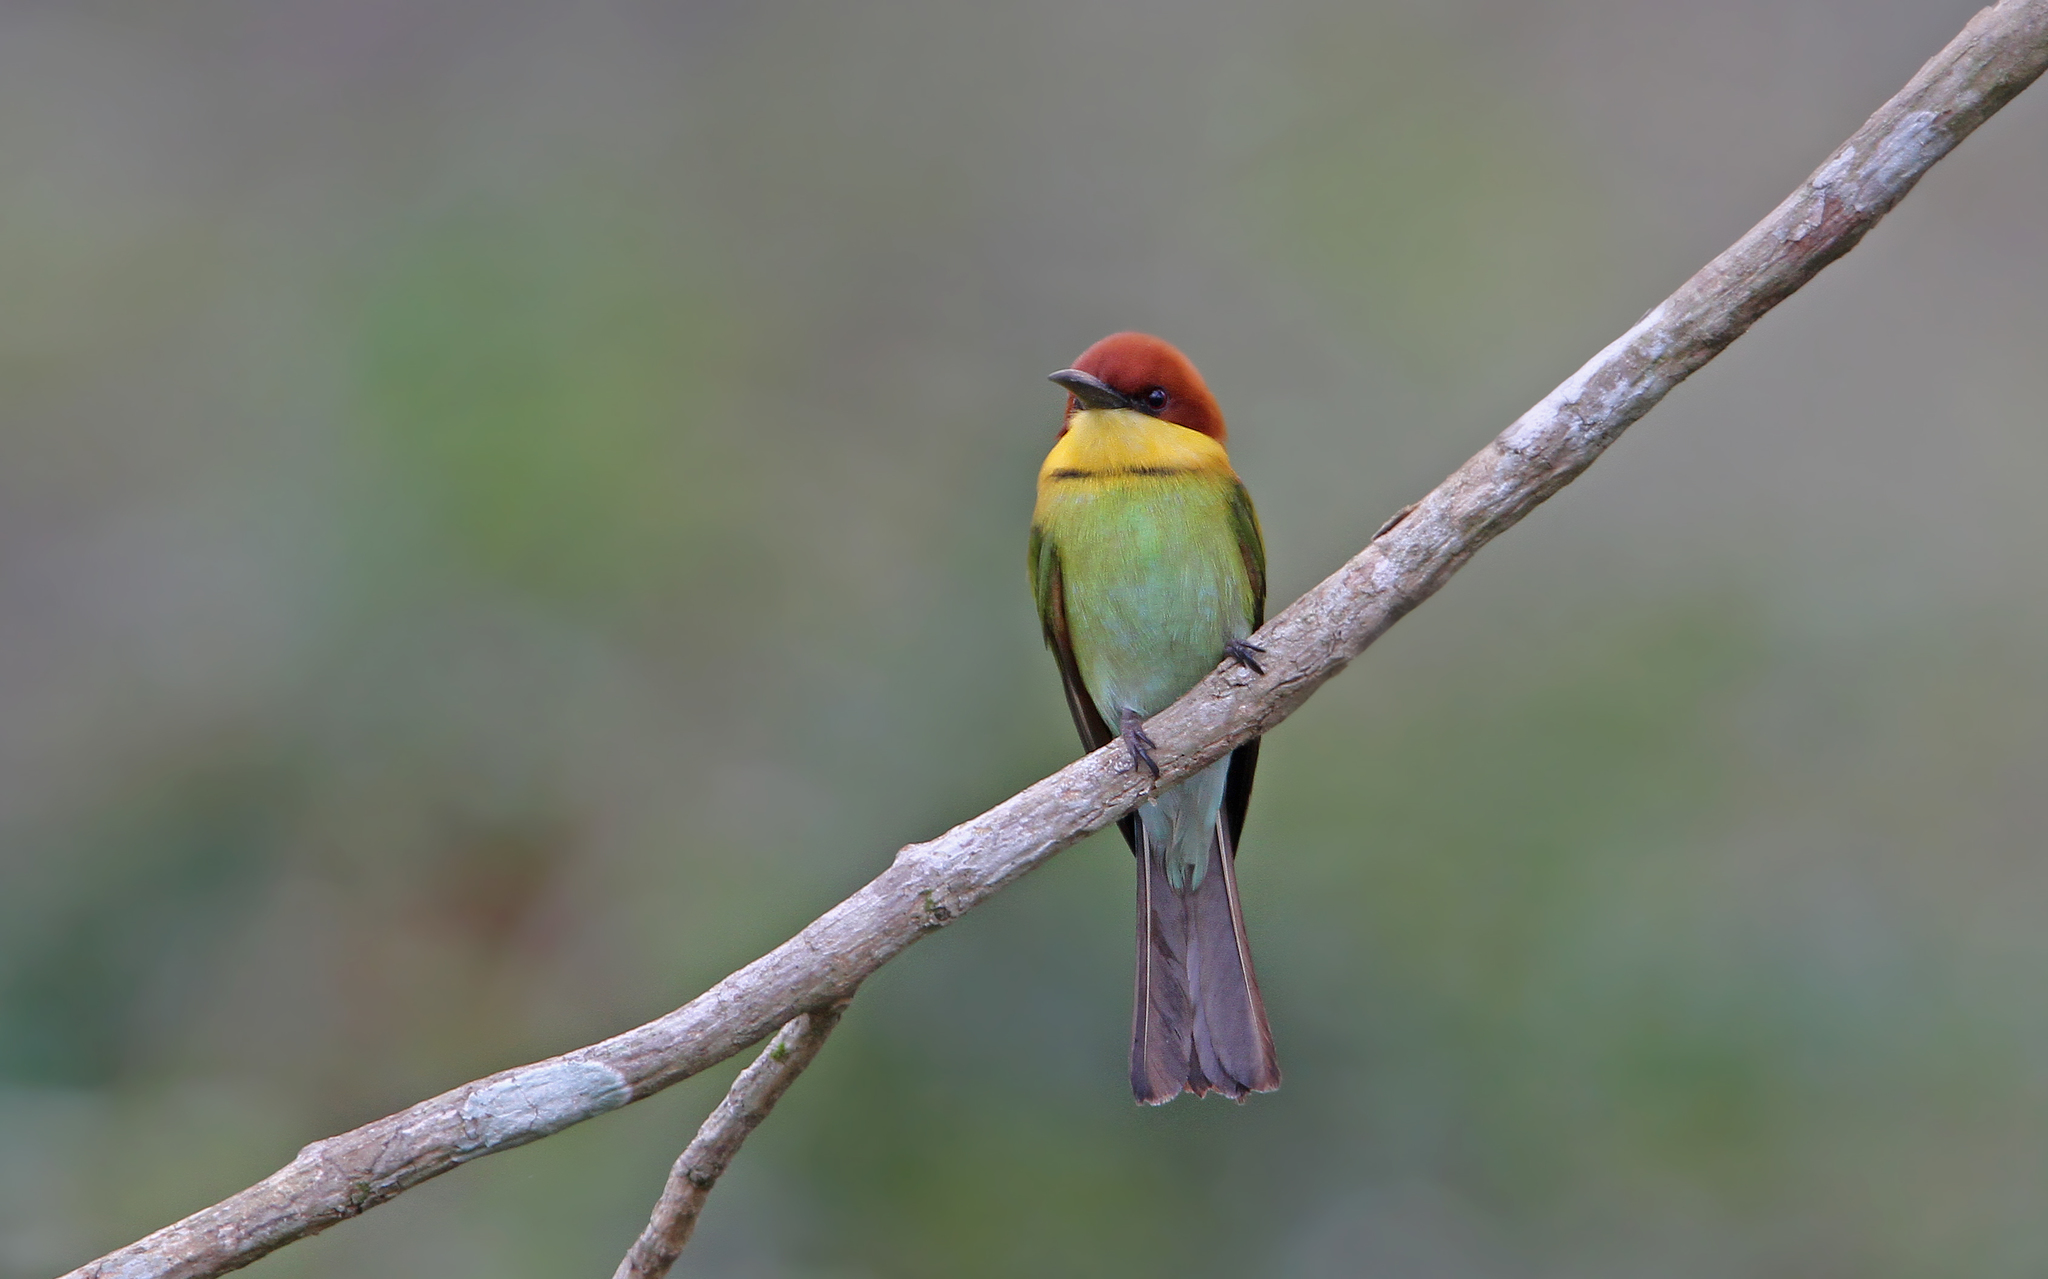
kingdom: Animalia
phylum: Chordata
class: Aves
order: Coraciiformes
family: Meropidae
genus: Merops
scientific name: Merops leschenaulti
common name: Chestnut-headed bee-eater
